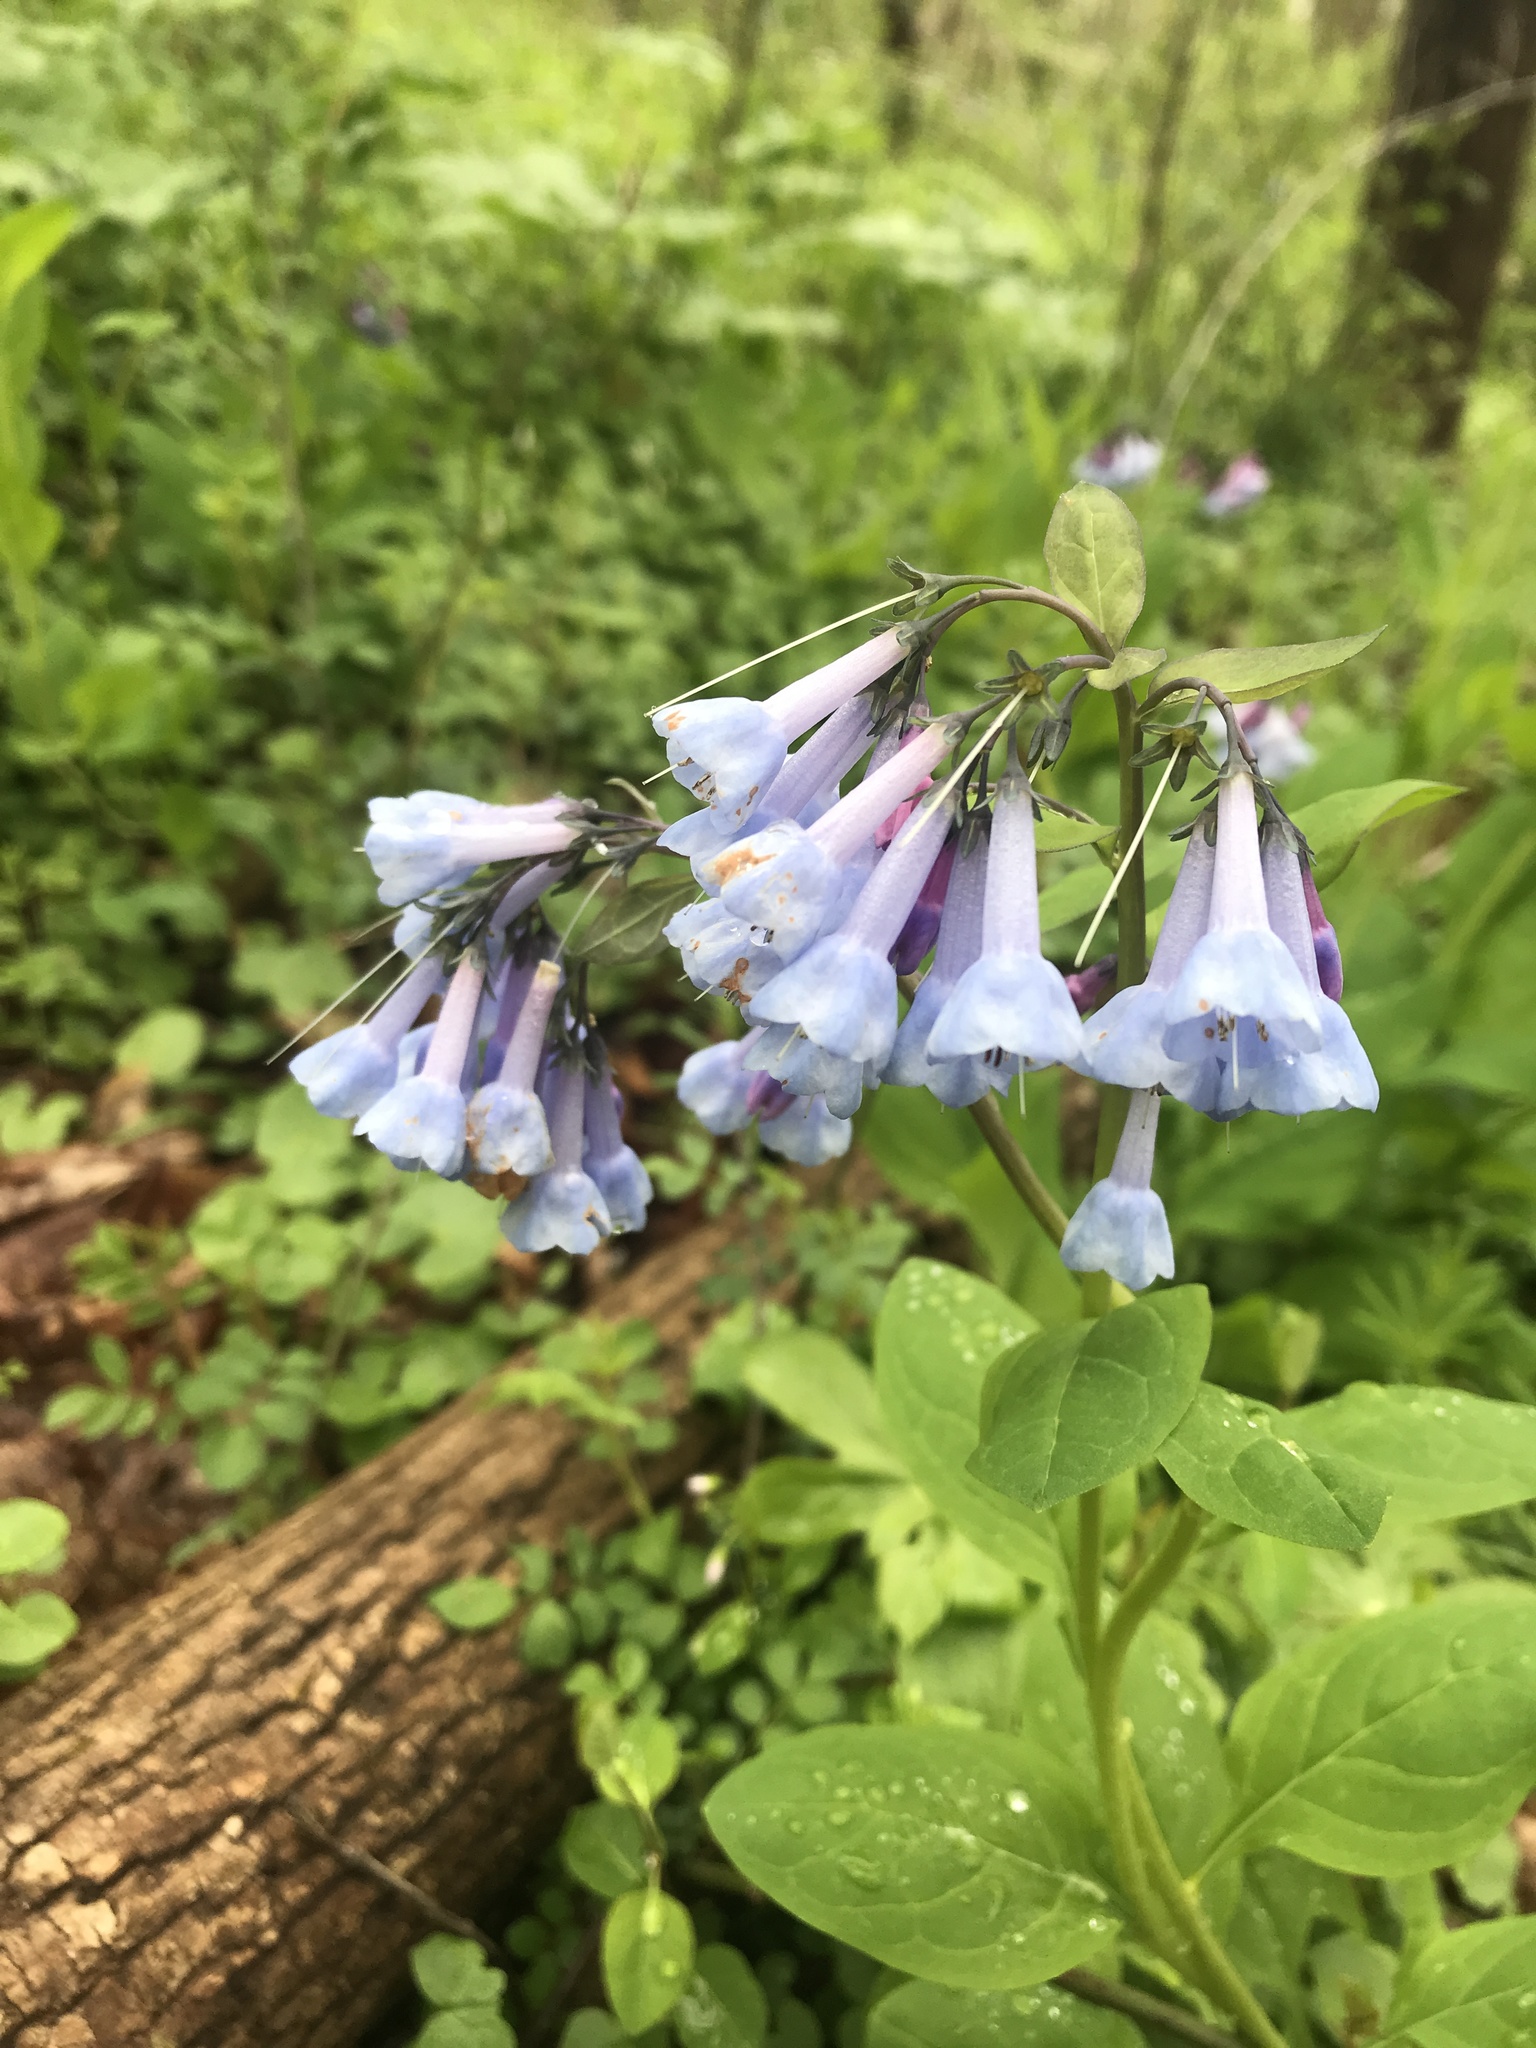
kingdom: Plantae
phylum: Tracheophyta
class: Magnoliopsida
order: Boraginales
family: Boraginaceae
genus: Mertensia
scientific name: Mertensia virginica
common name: Virginia bluebells
